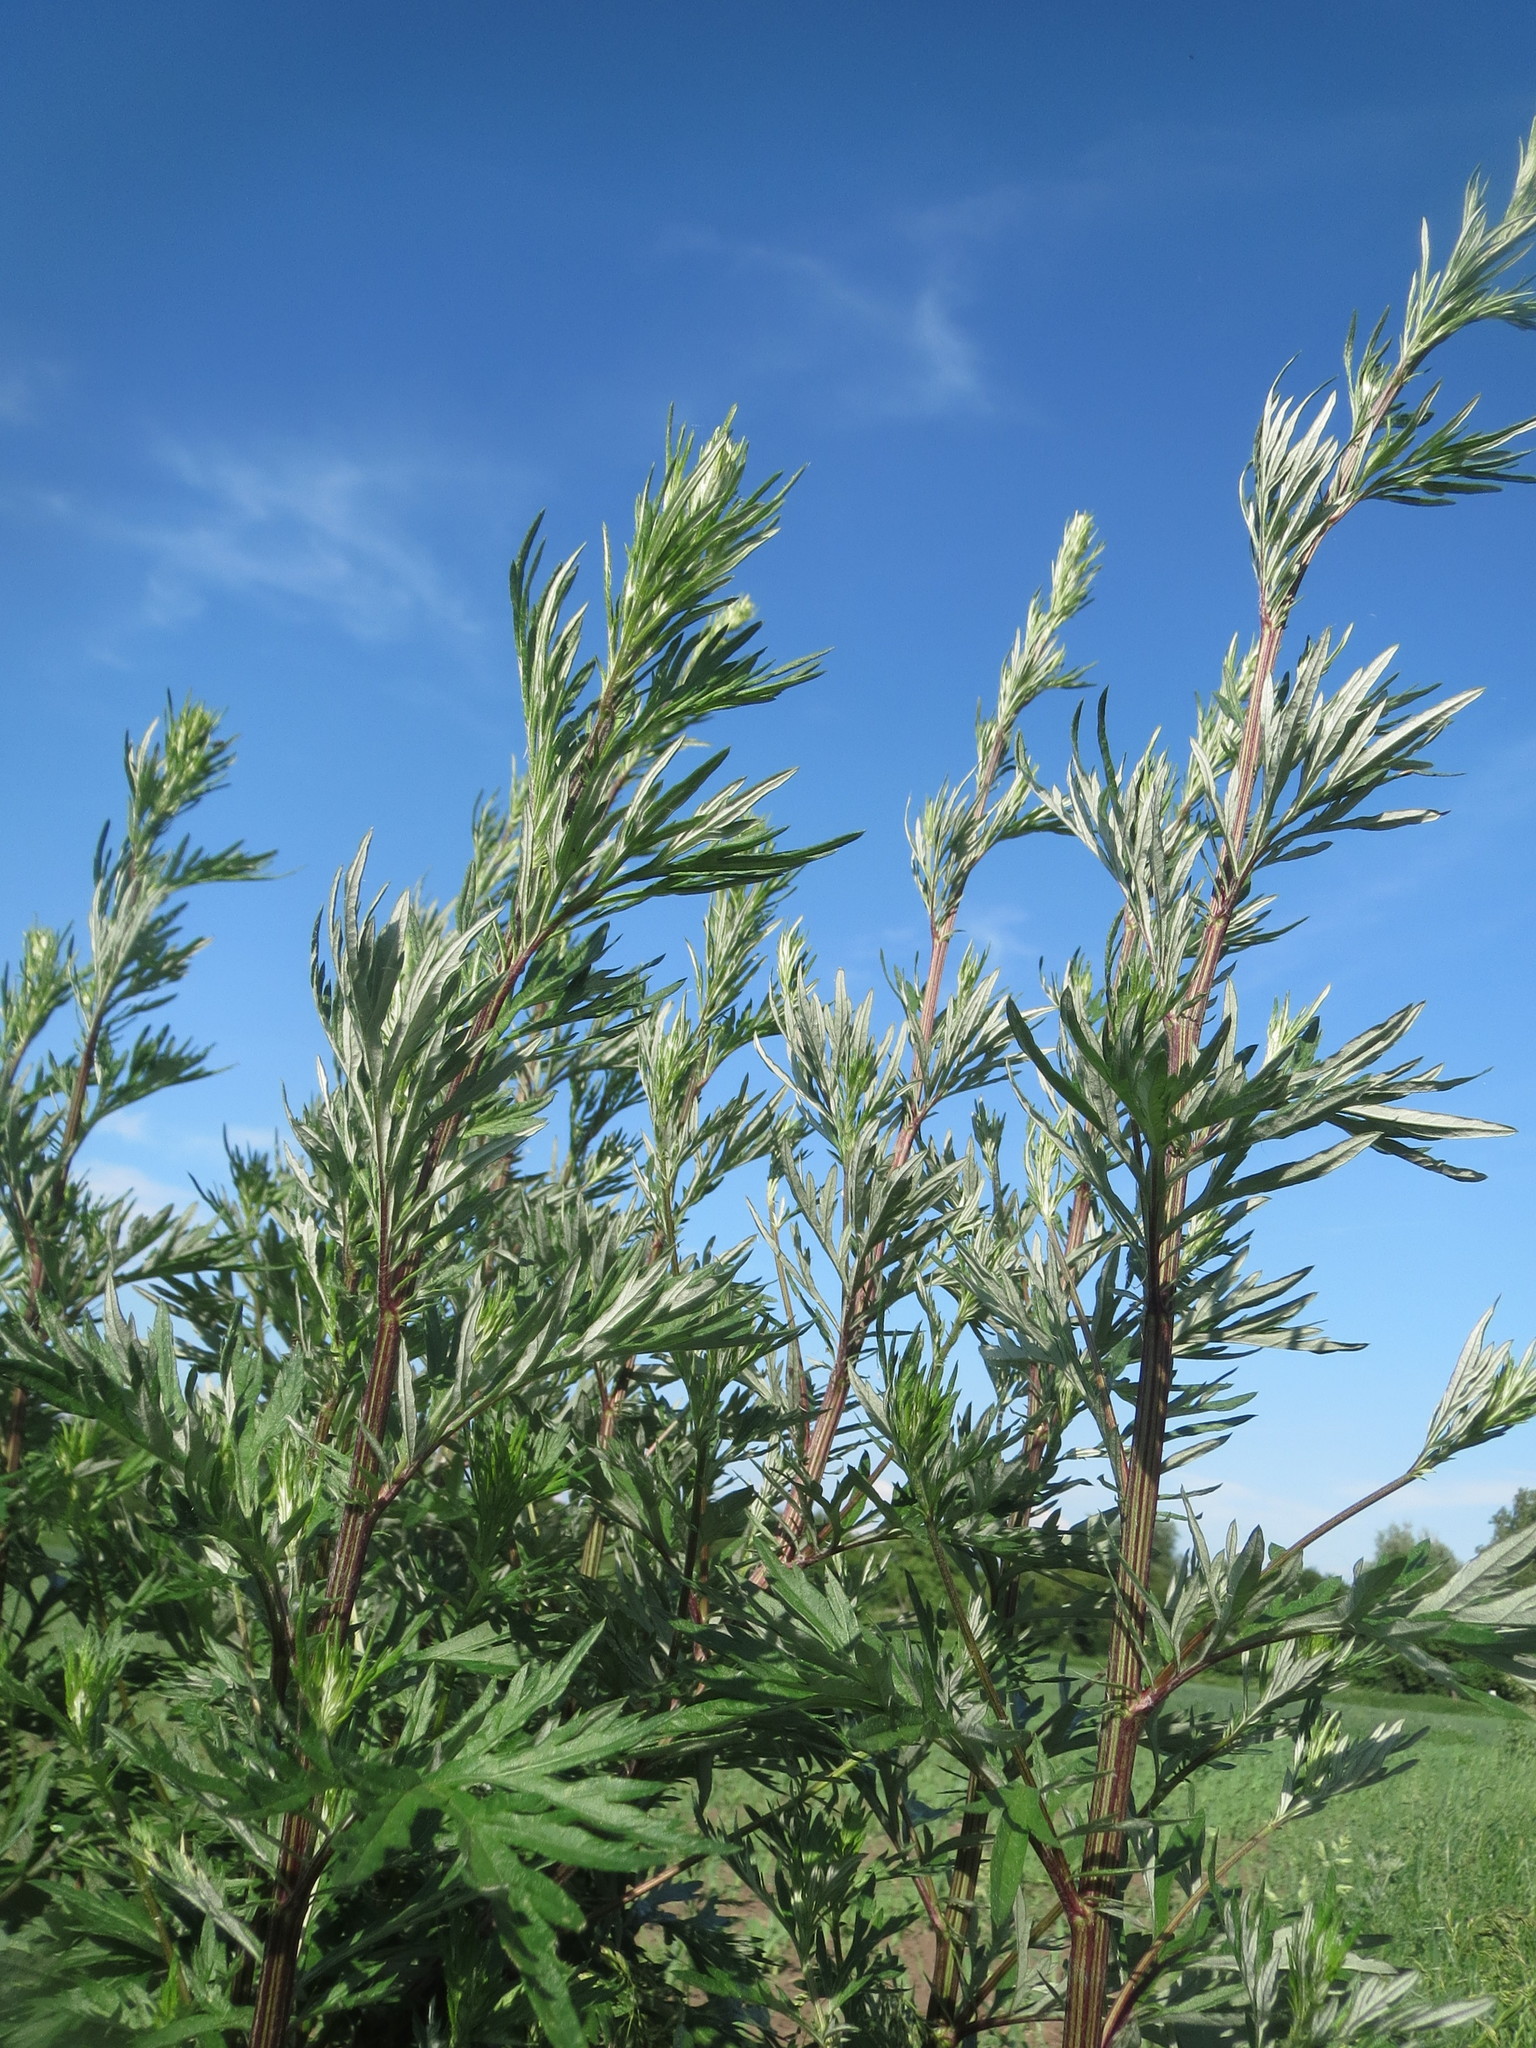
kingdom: Plantae
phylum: Tracheophyta
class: Magnoliopsida
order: Asterales
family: Asteraceae
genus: Artemisia
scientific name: Artemisia vulgaris
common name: Mugwort
